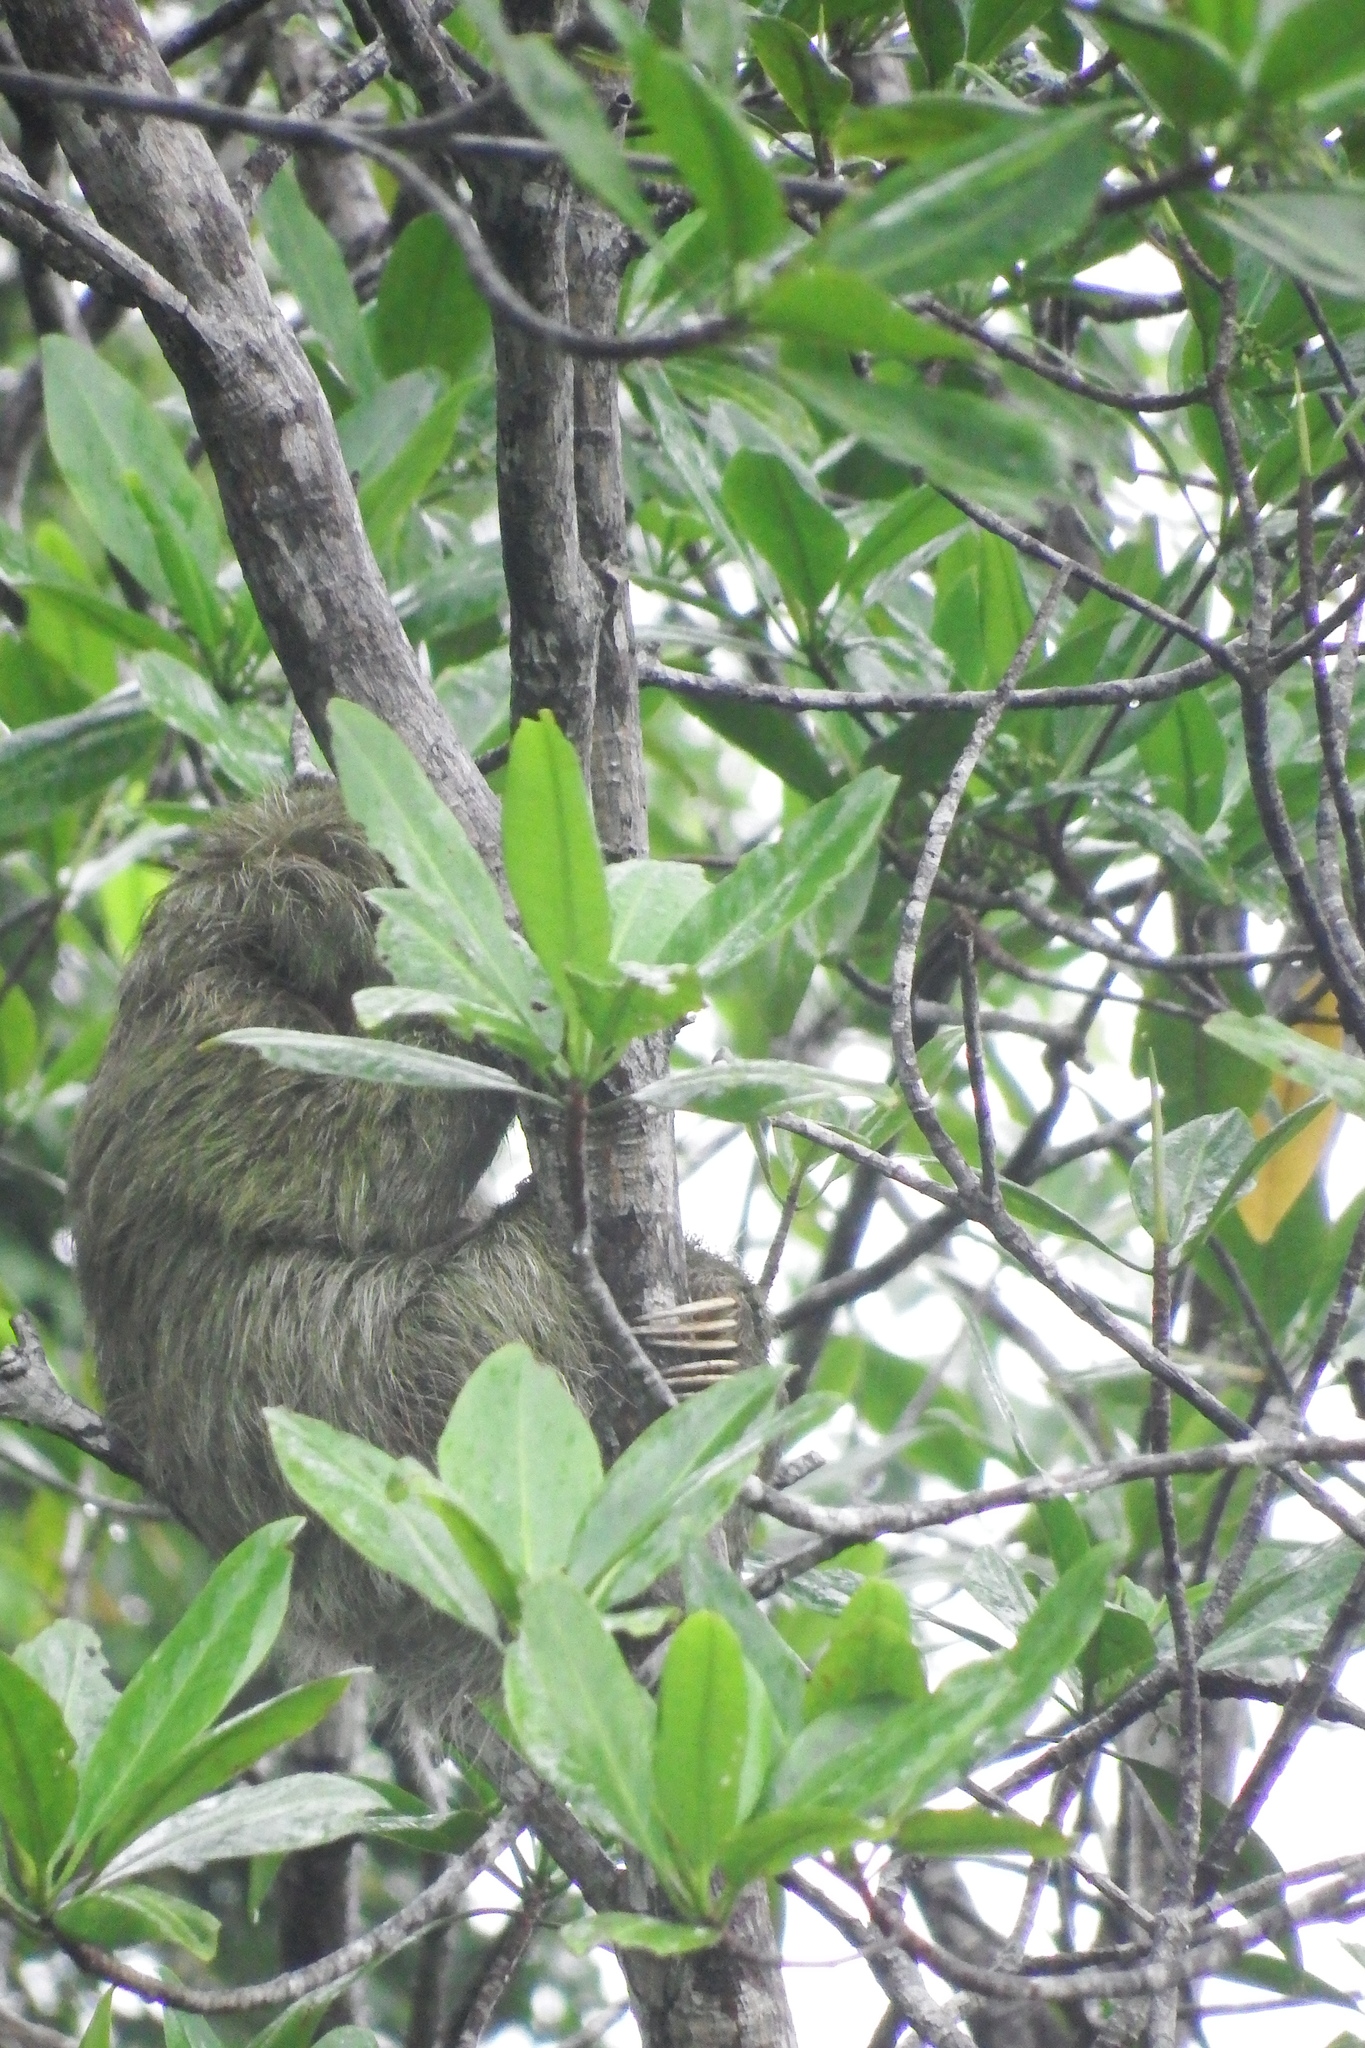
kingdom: Animalia
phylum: Chordata
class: Mammalia
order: Pilosa
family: Bradypodidae
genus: Bradypus
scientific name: Bradypus variegatus
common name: Brown-throated three-toed sloth
